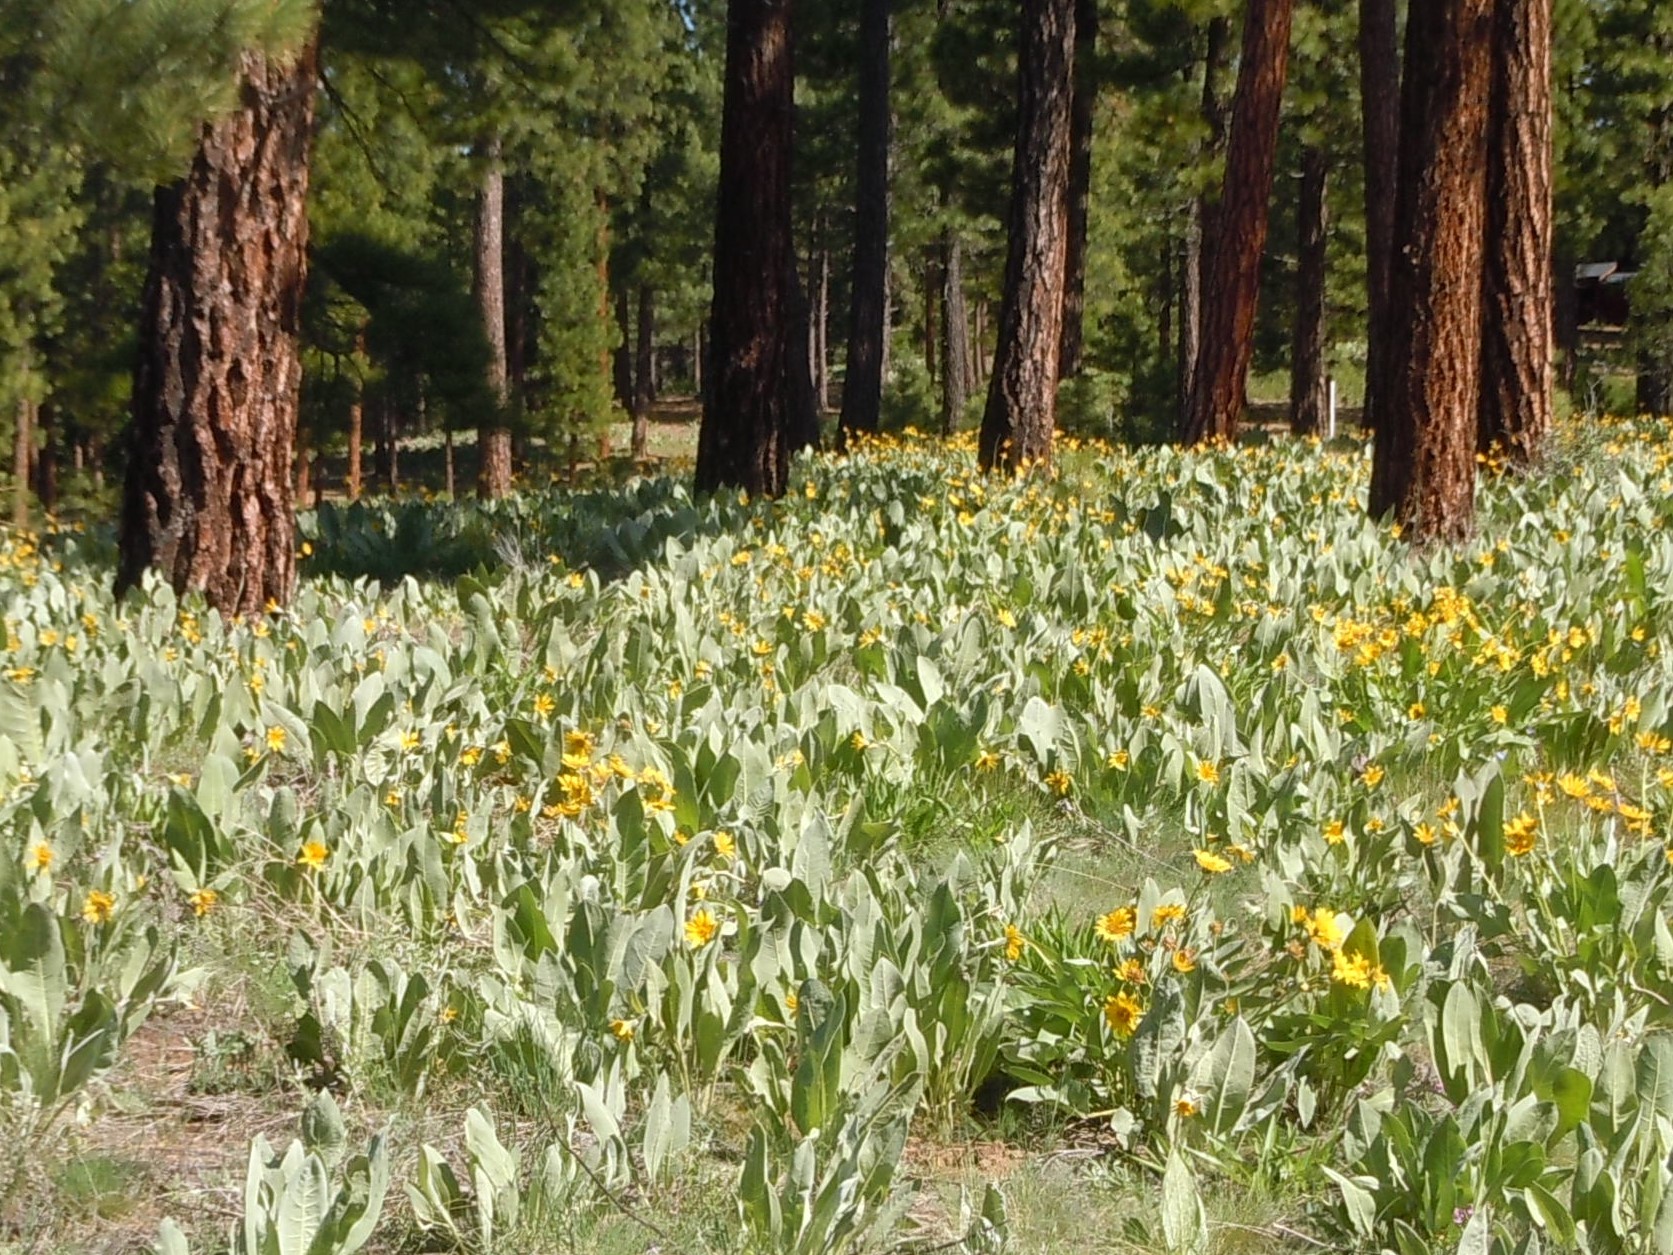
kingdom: Plantae
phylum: Tracheophyta
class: Magnoliopsida
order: Asterales
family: Asteraceae
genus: Wyethia
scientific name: Wyethia mollis
